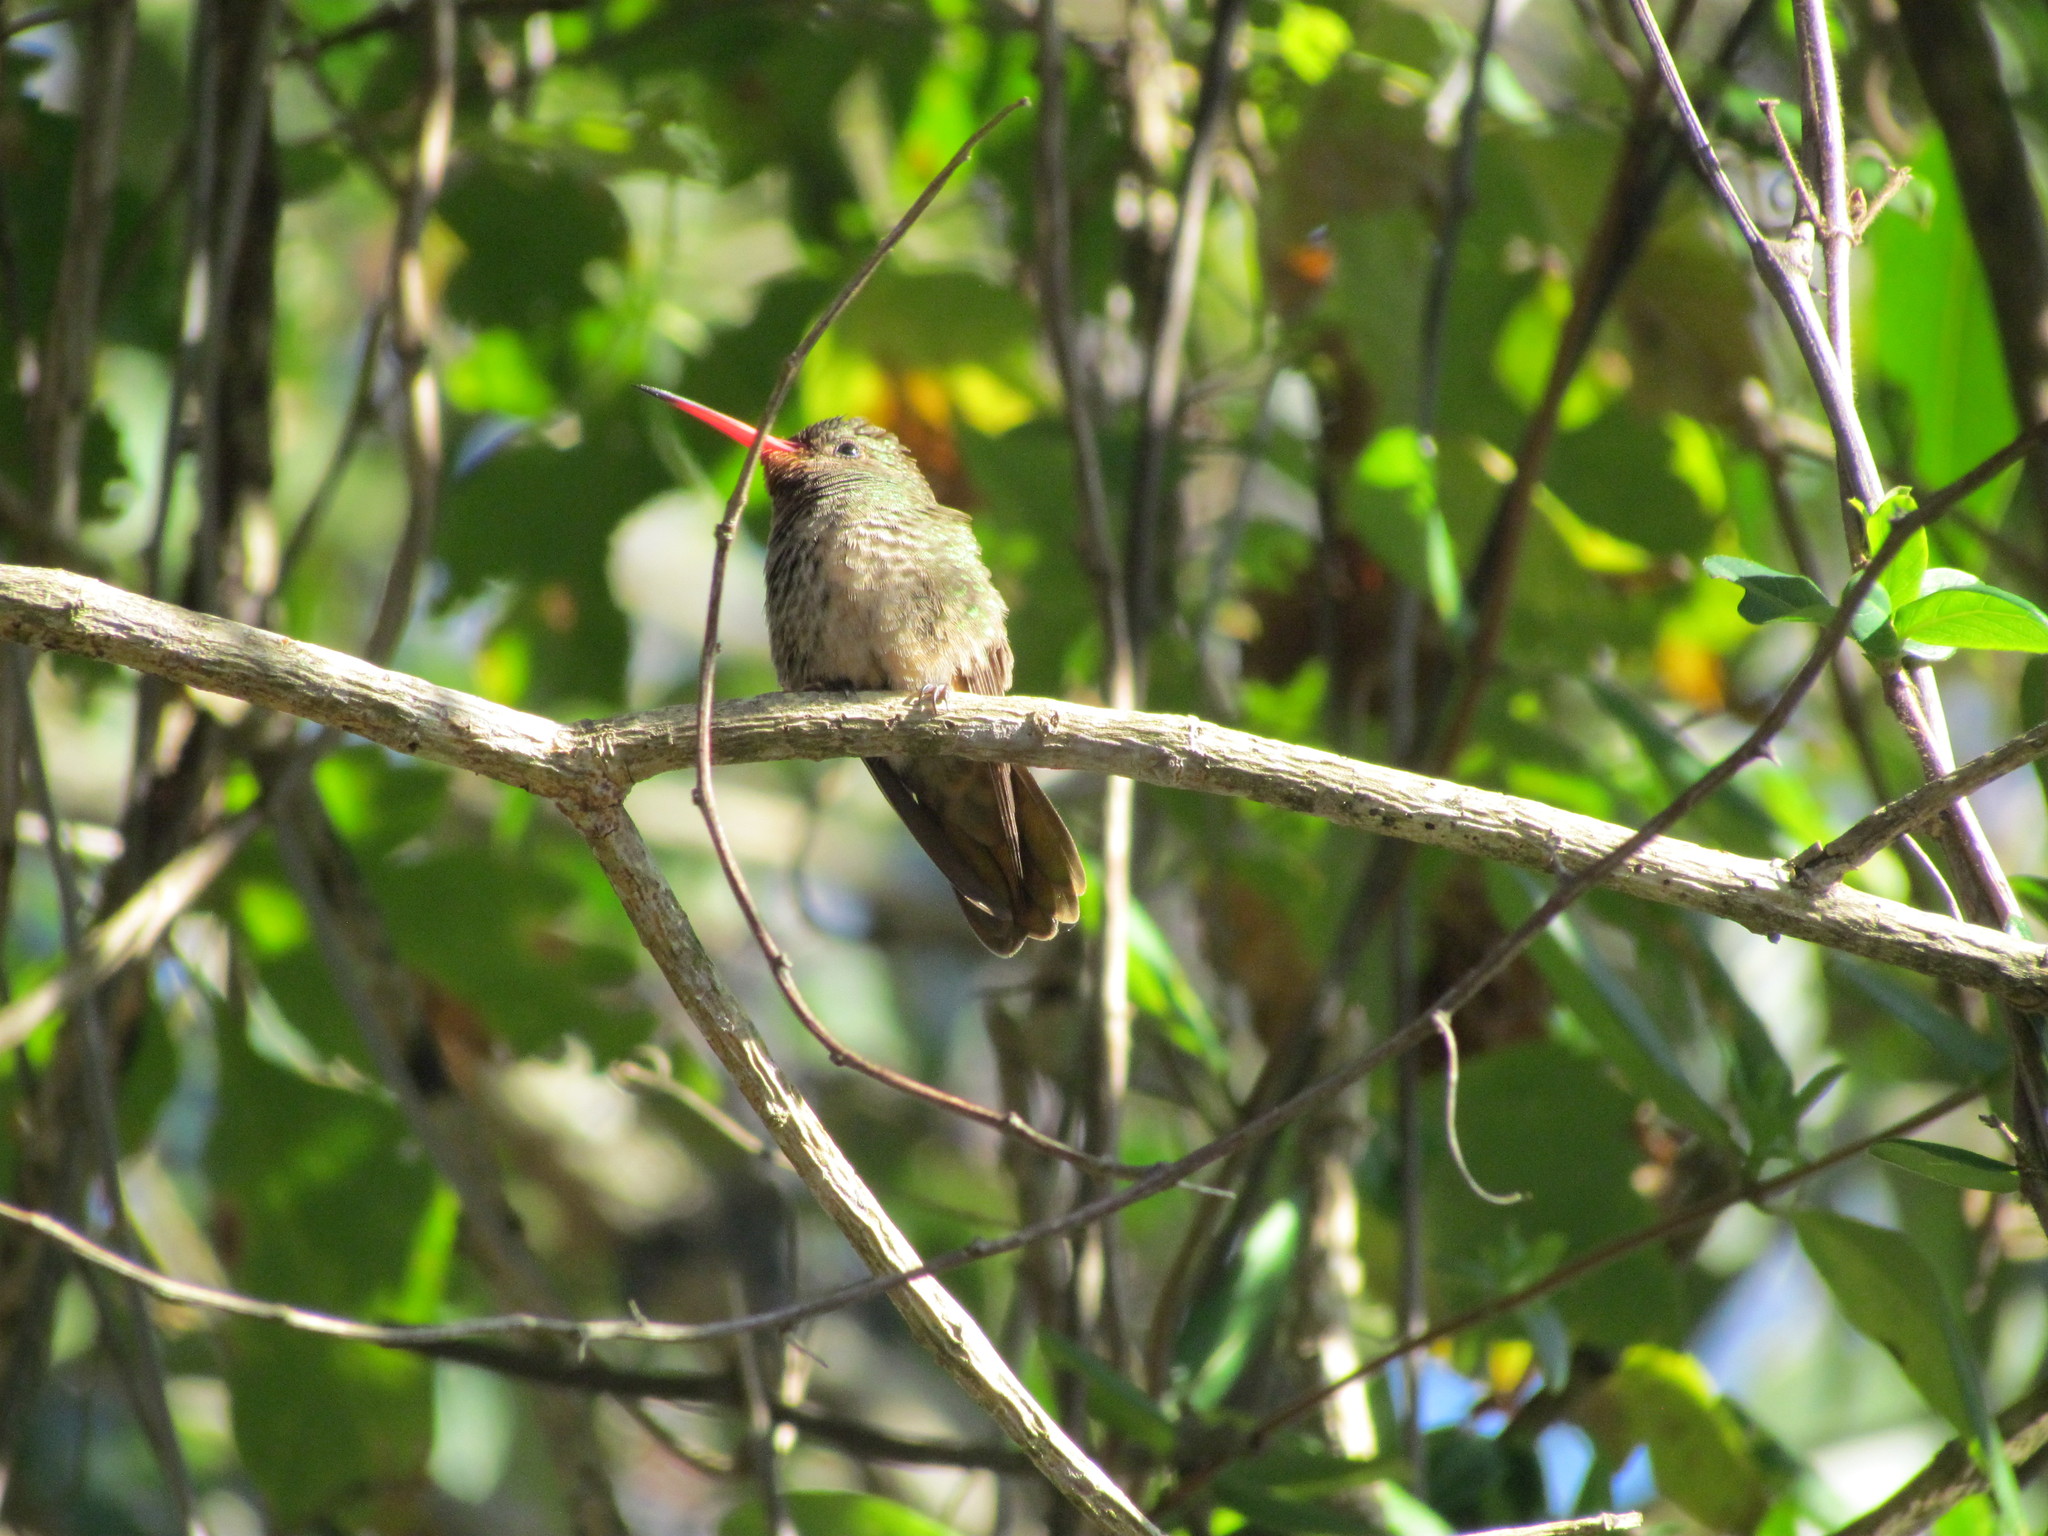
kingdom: Animalia
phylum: Chordata
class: Aves
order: Apodiformes
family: Trochilidae
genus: Hylocharis
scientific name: Hylocharis chrysura
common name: Gilded sapphire
